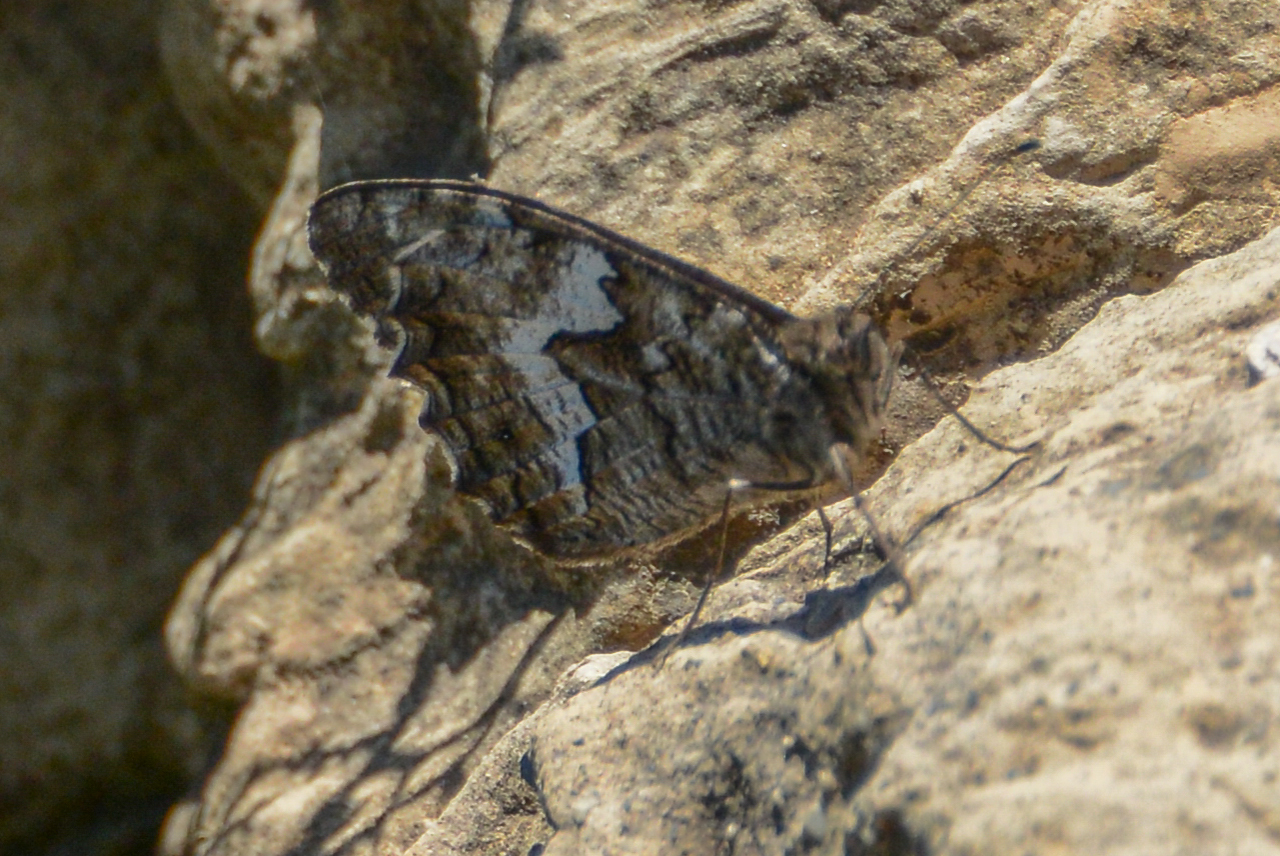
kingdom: Animalia
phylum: Arthropoda
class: Insecta
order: Lepidoptera
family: Nymphalidae
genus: Hipparchia
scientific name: Hipparchia cretica
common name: Cretan grayling
